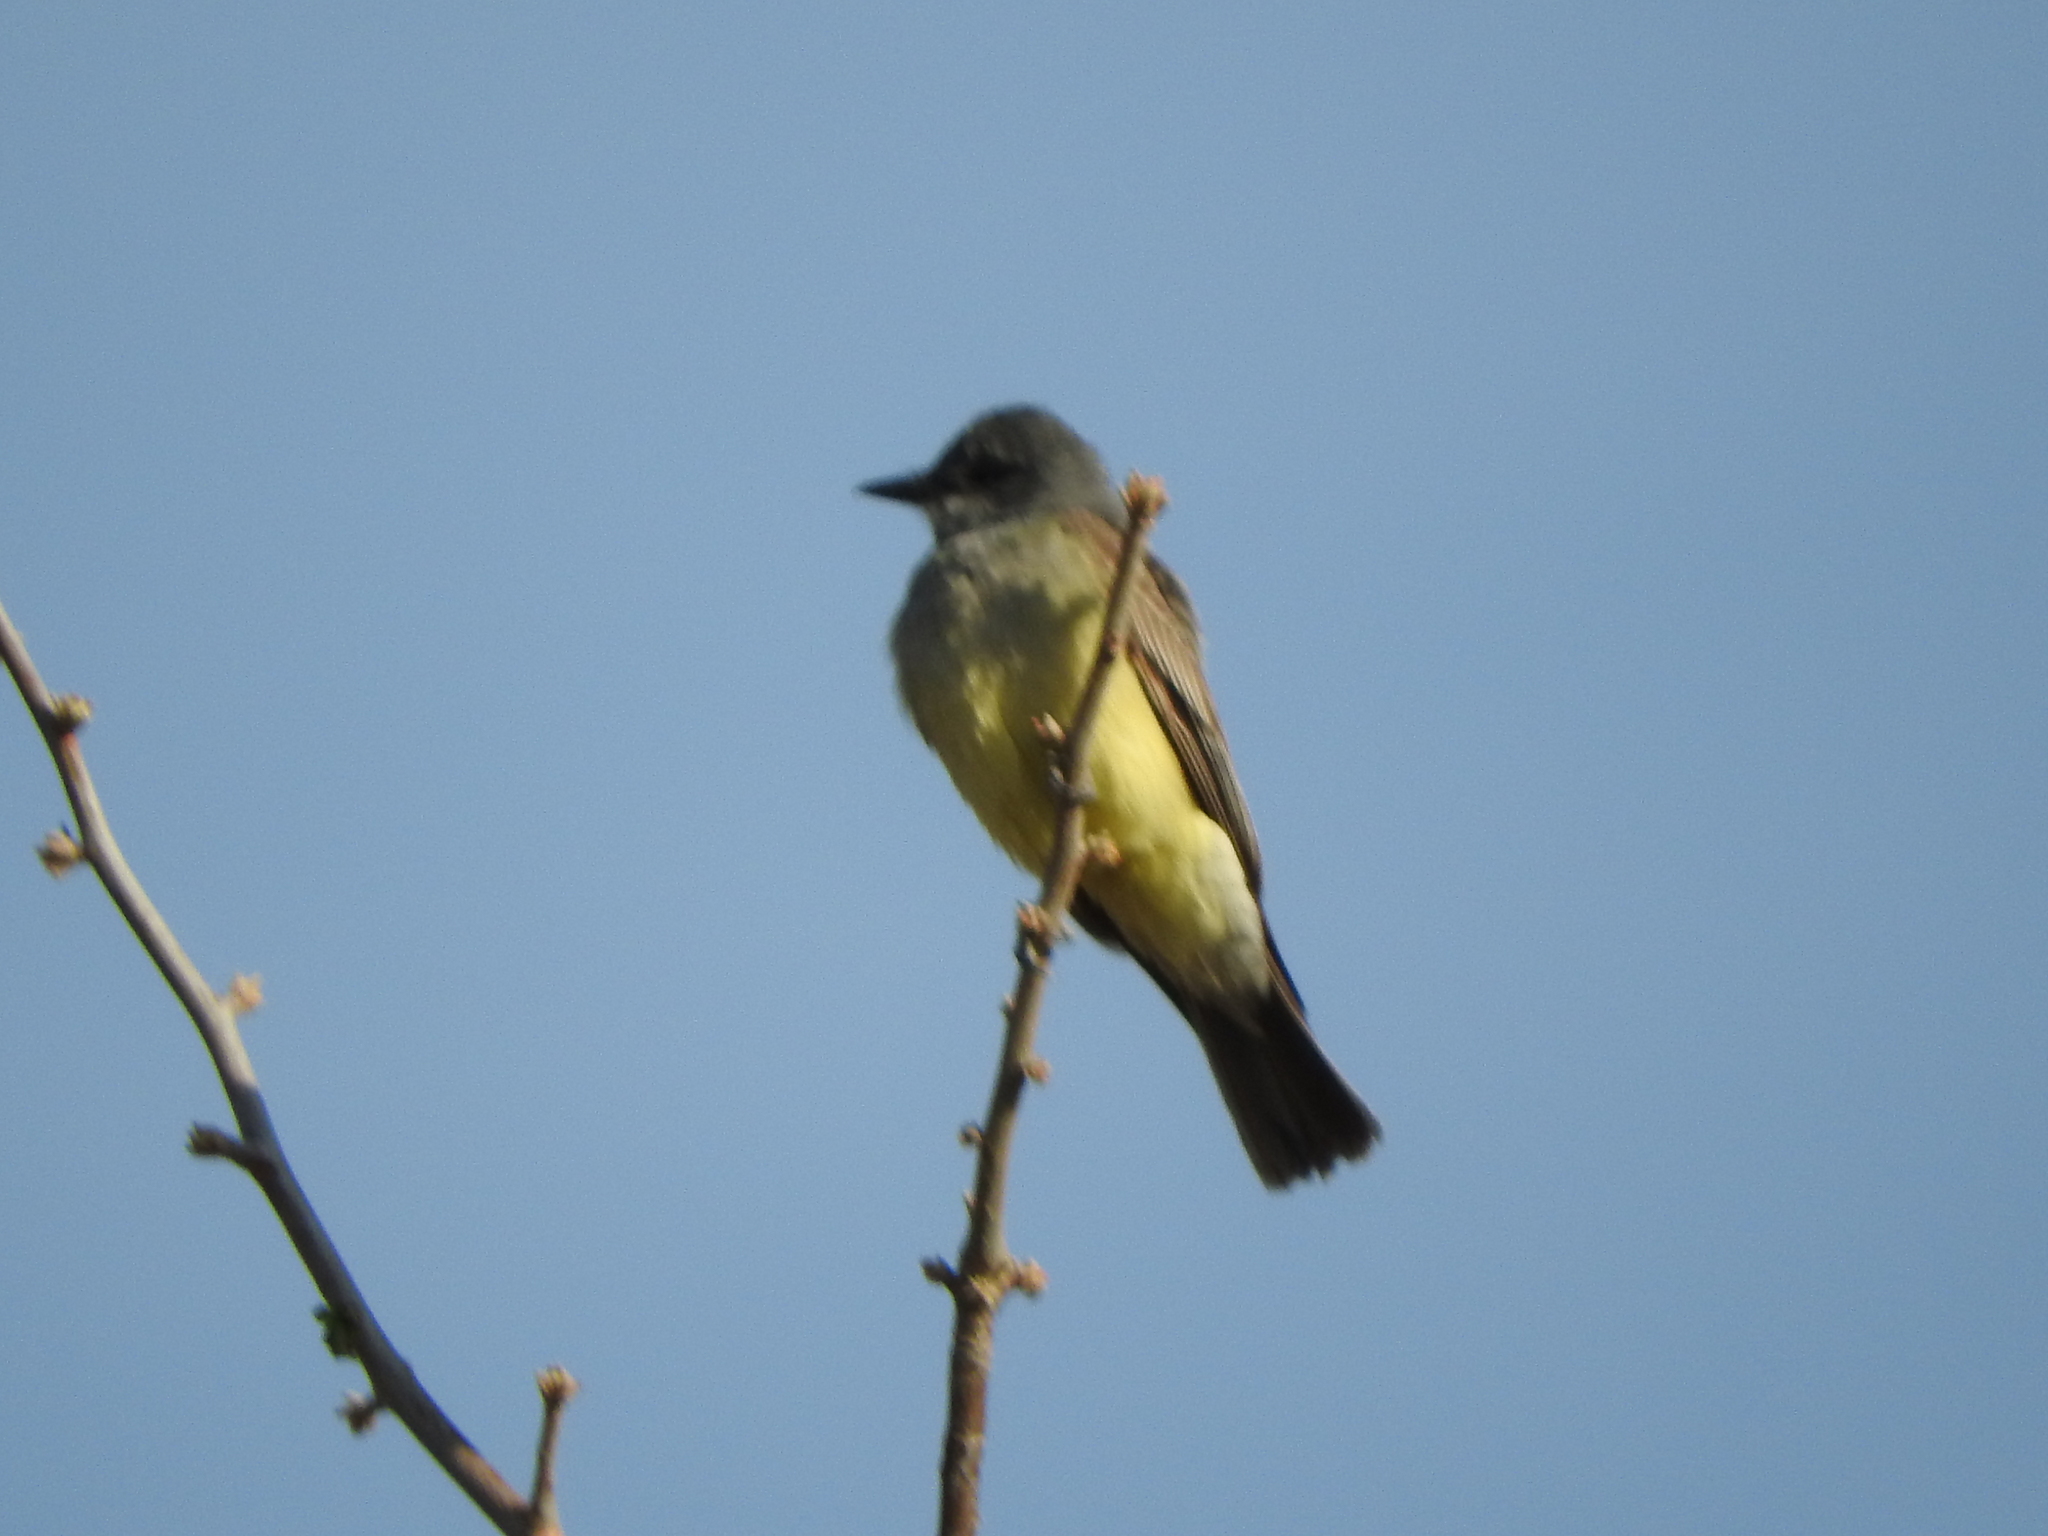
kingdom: Animalia
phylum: Chordata
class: Aves
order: Passeriformes
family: Tyrannidae
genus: Tyrannus
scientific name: Tyrannus vociferans
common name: Cassin's kingbird
